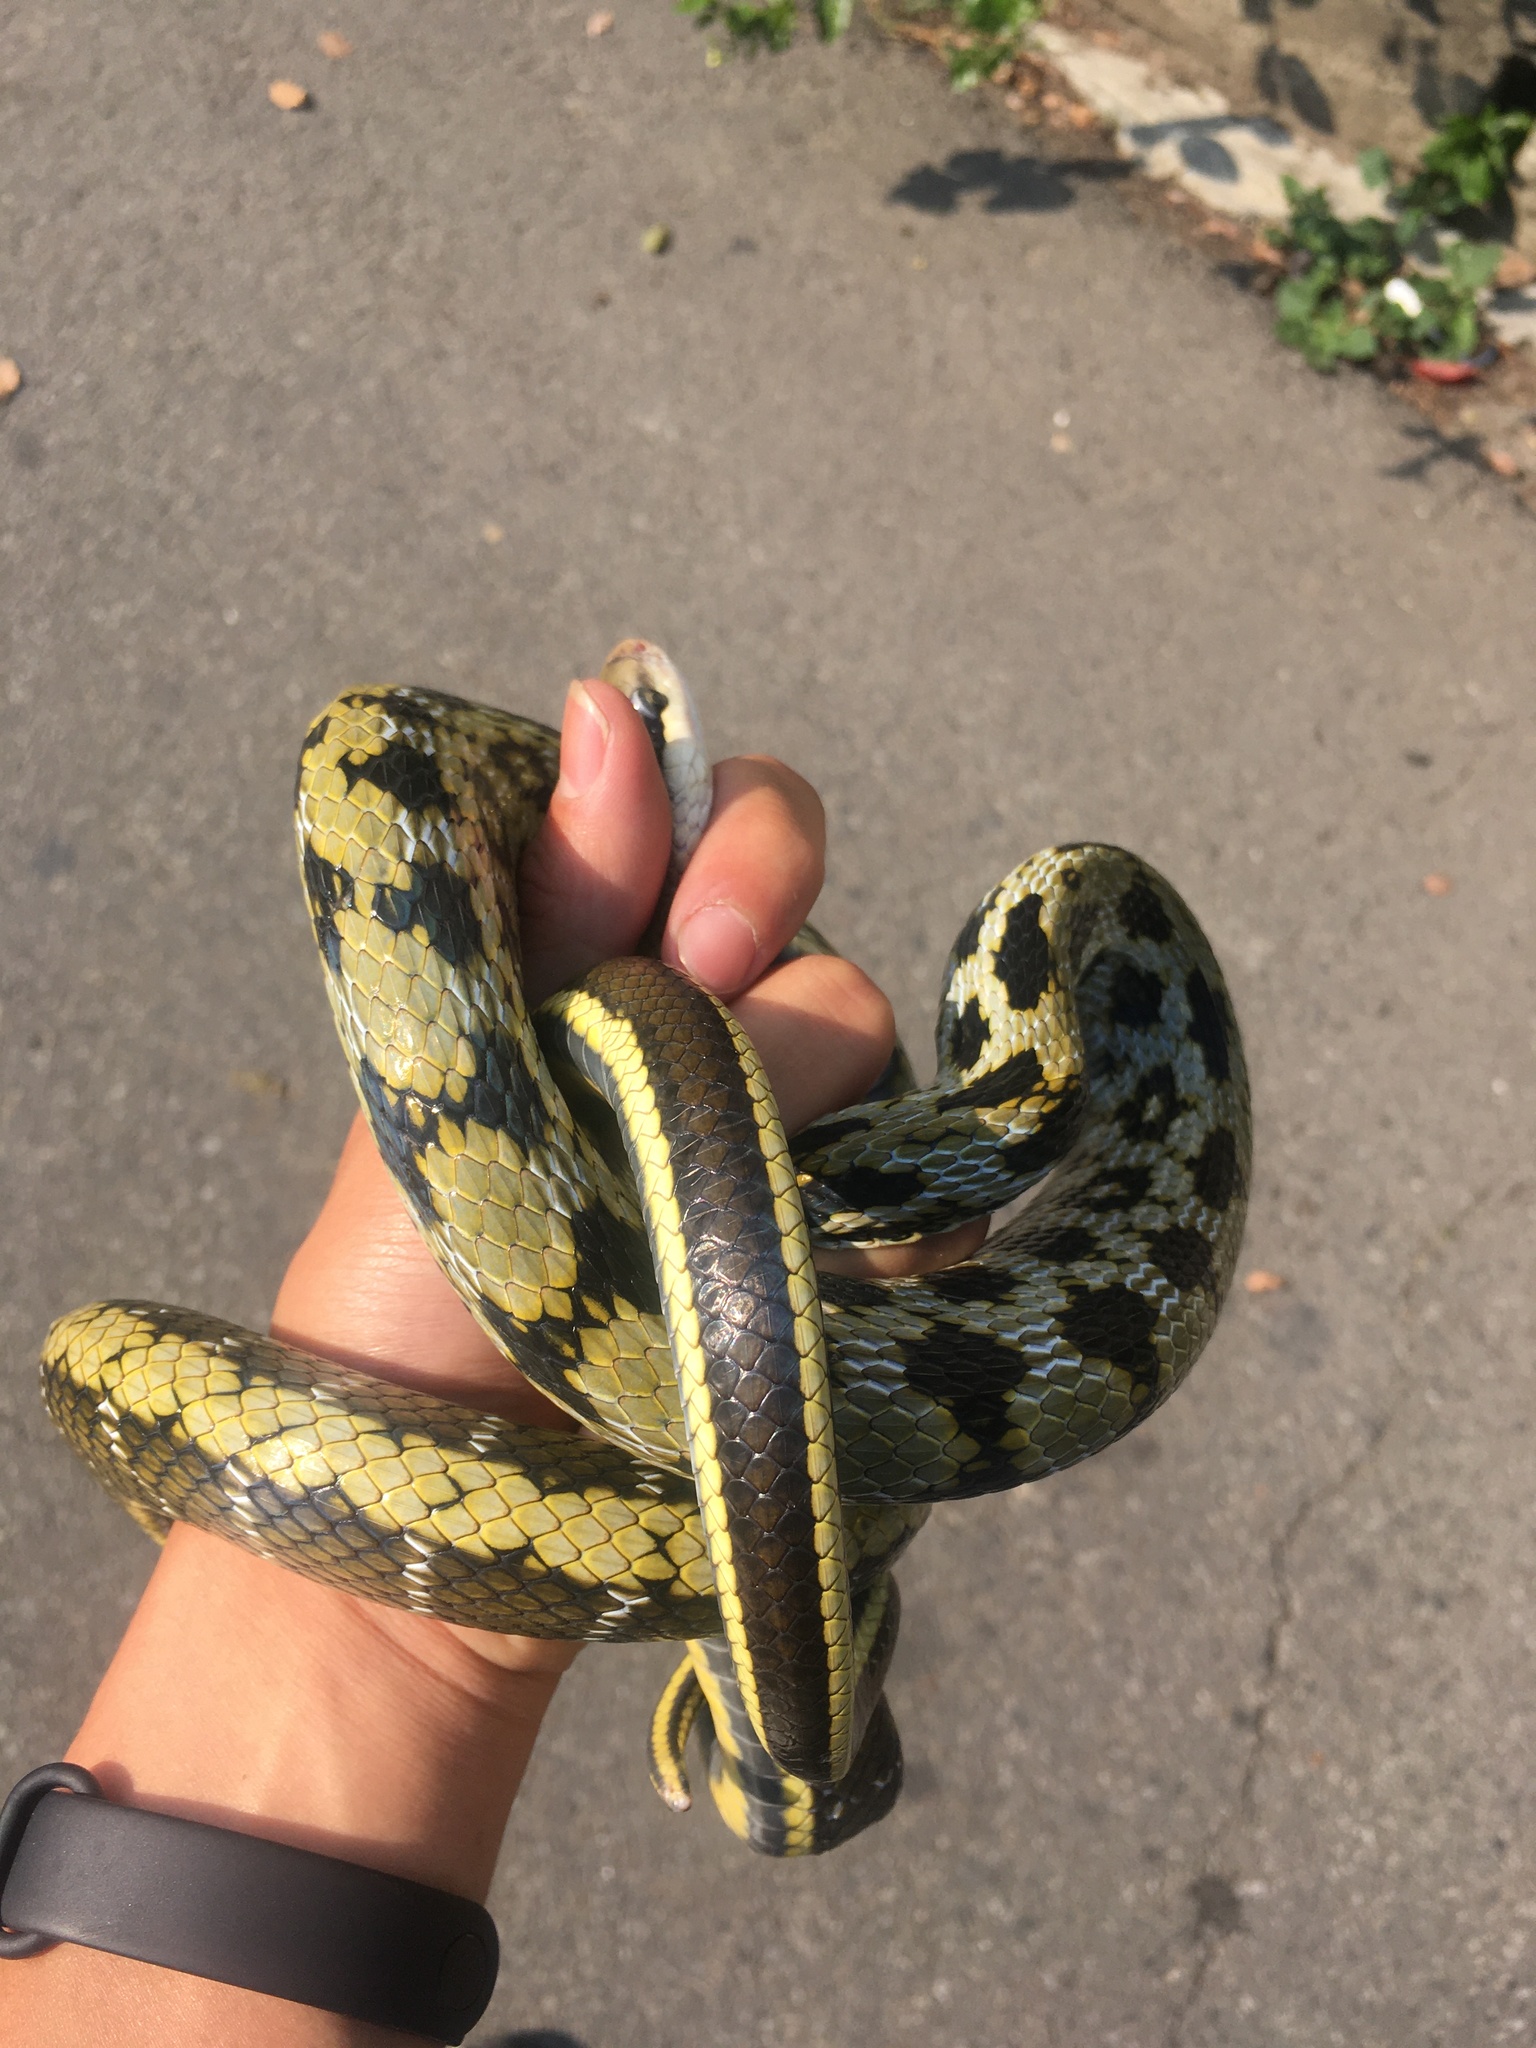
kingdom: Animalia
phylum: Chordata
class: Squamata
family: Colubridae
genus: Elaphe
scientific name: Elaphe taeniura
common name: Beauty snake
